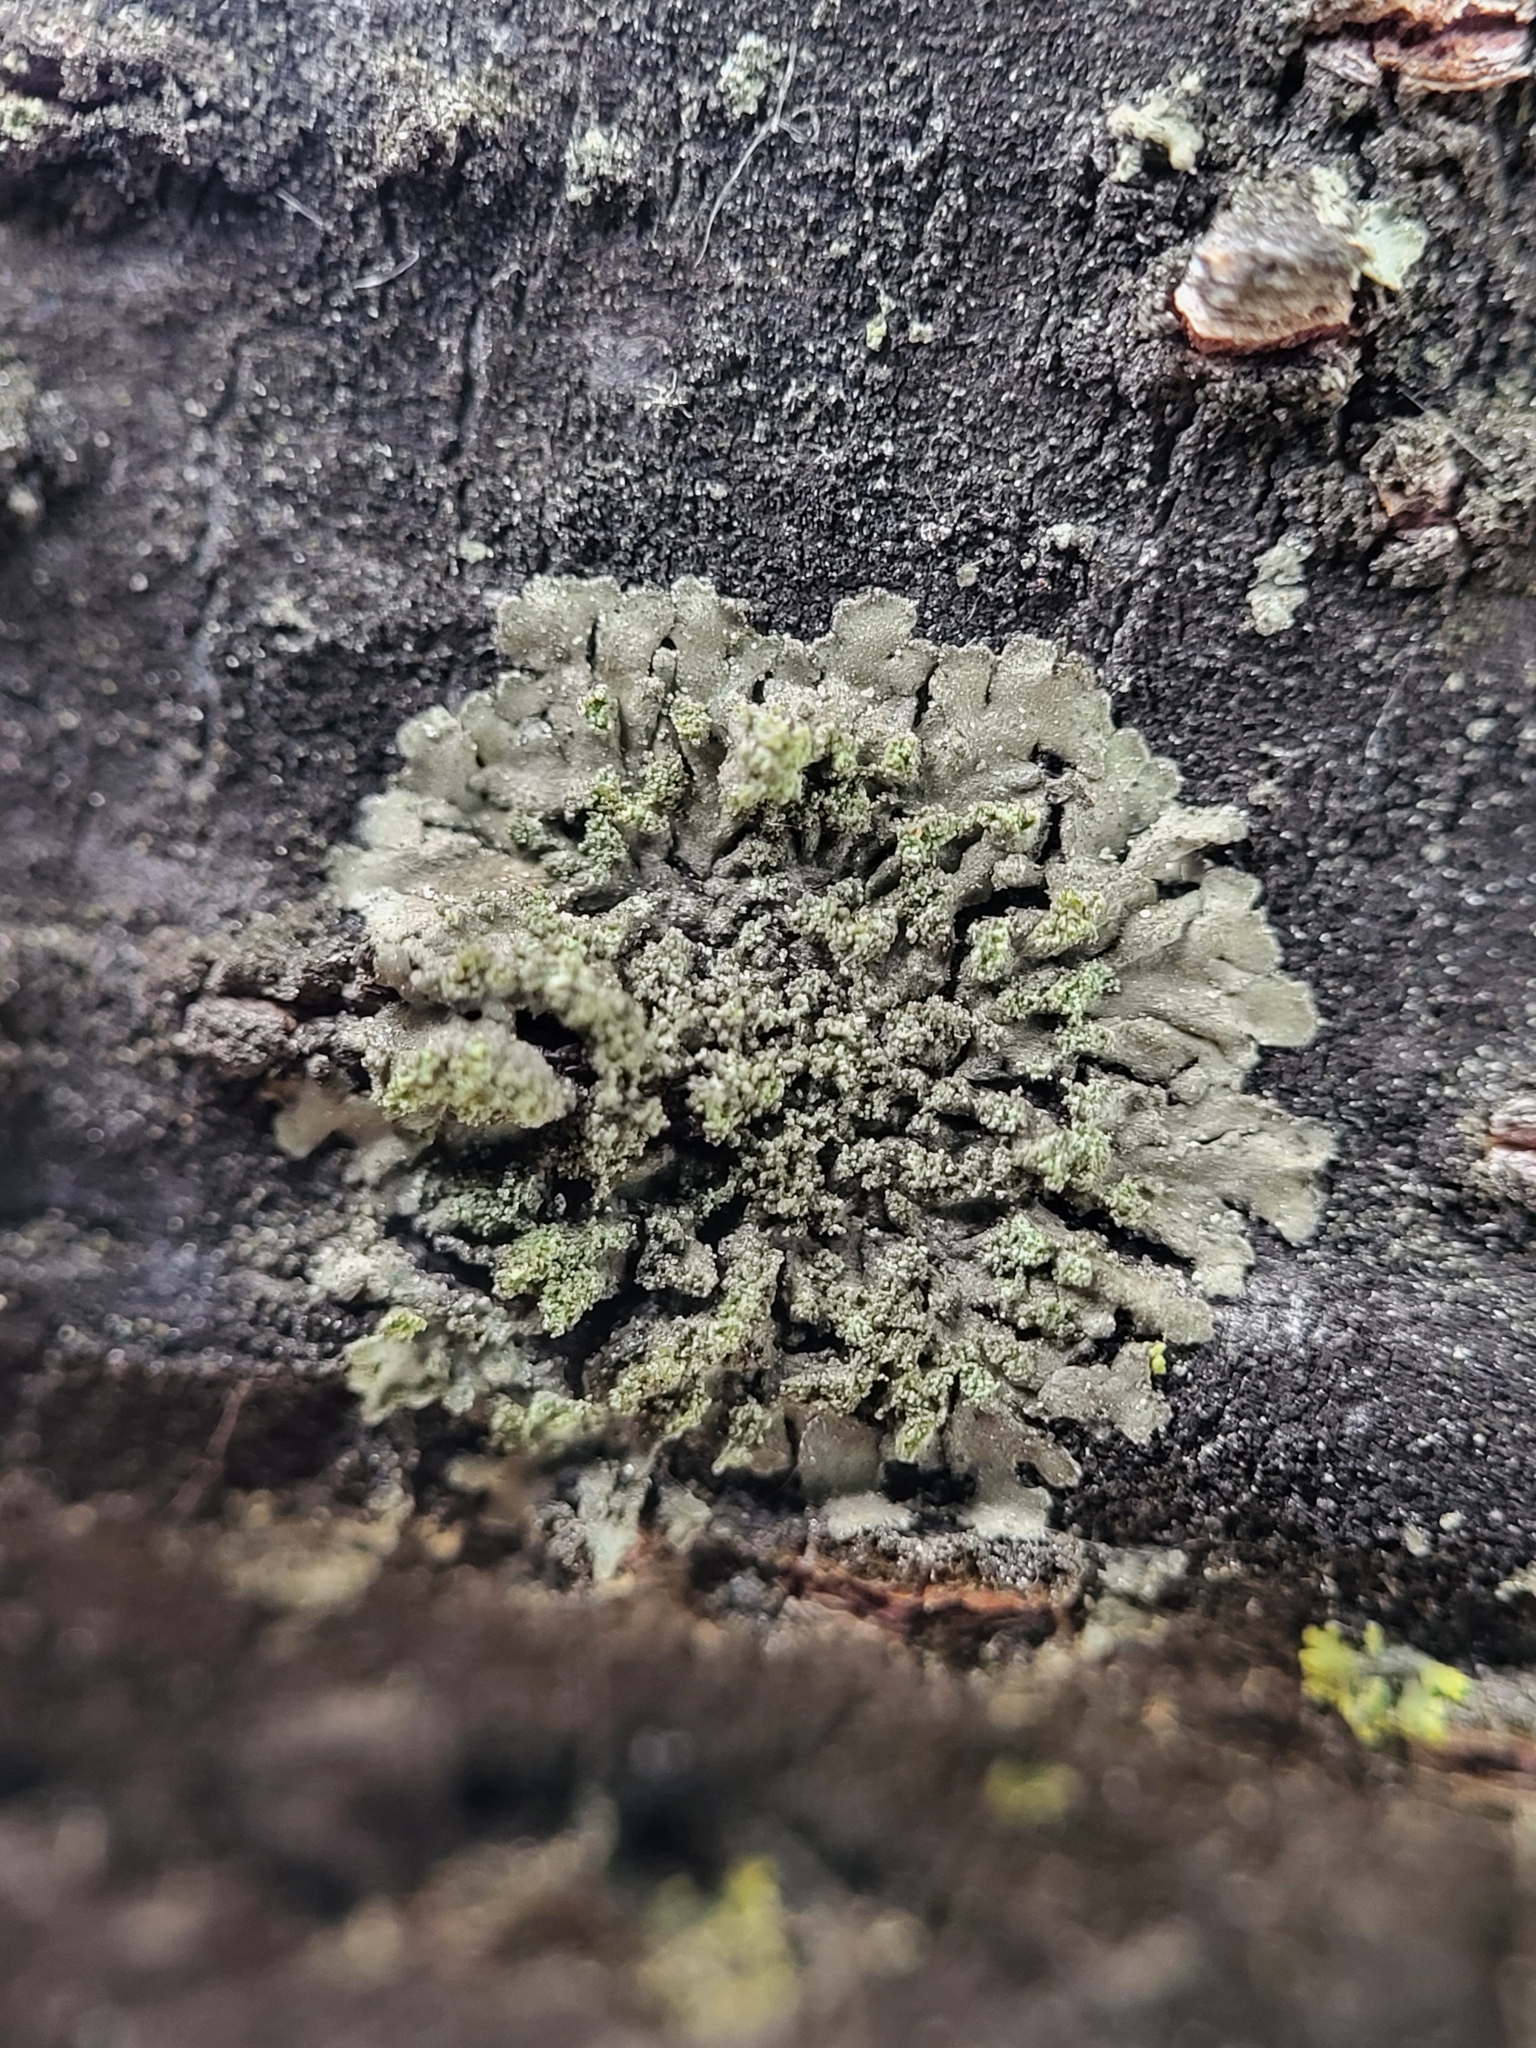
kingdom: Fungi
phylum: Ascomycota
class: Lecanoromycetes
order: Caliciales
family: Physciaceae
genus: Hyperphyscia
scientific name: Hyperphyscia adglutinata
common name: Grainy shadow-crust lichen
